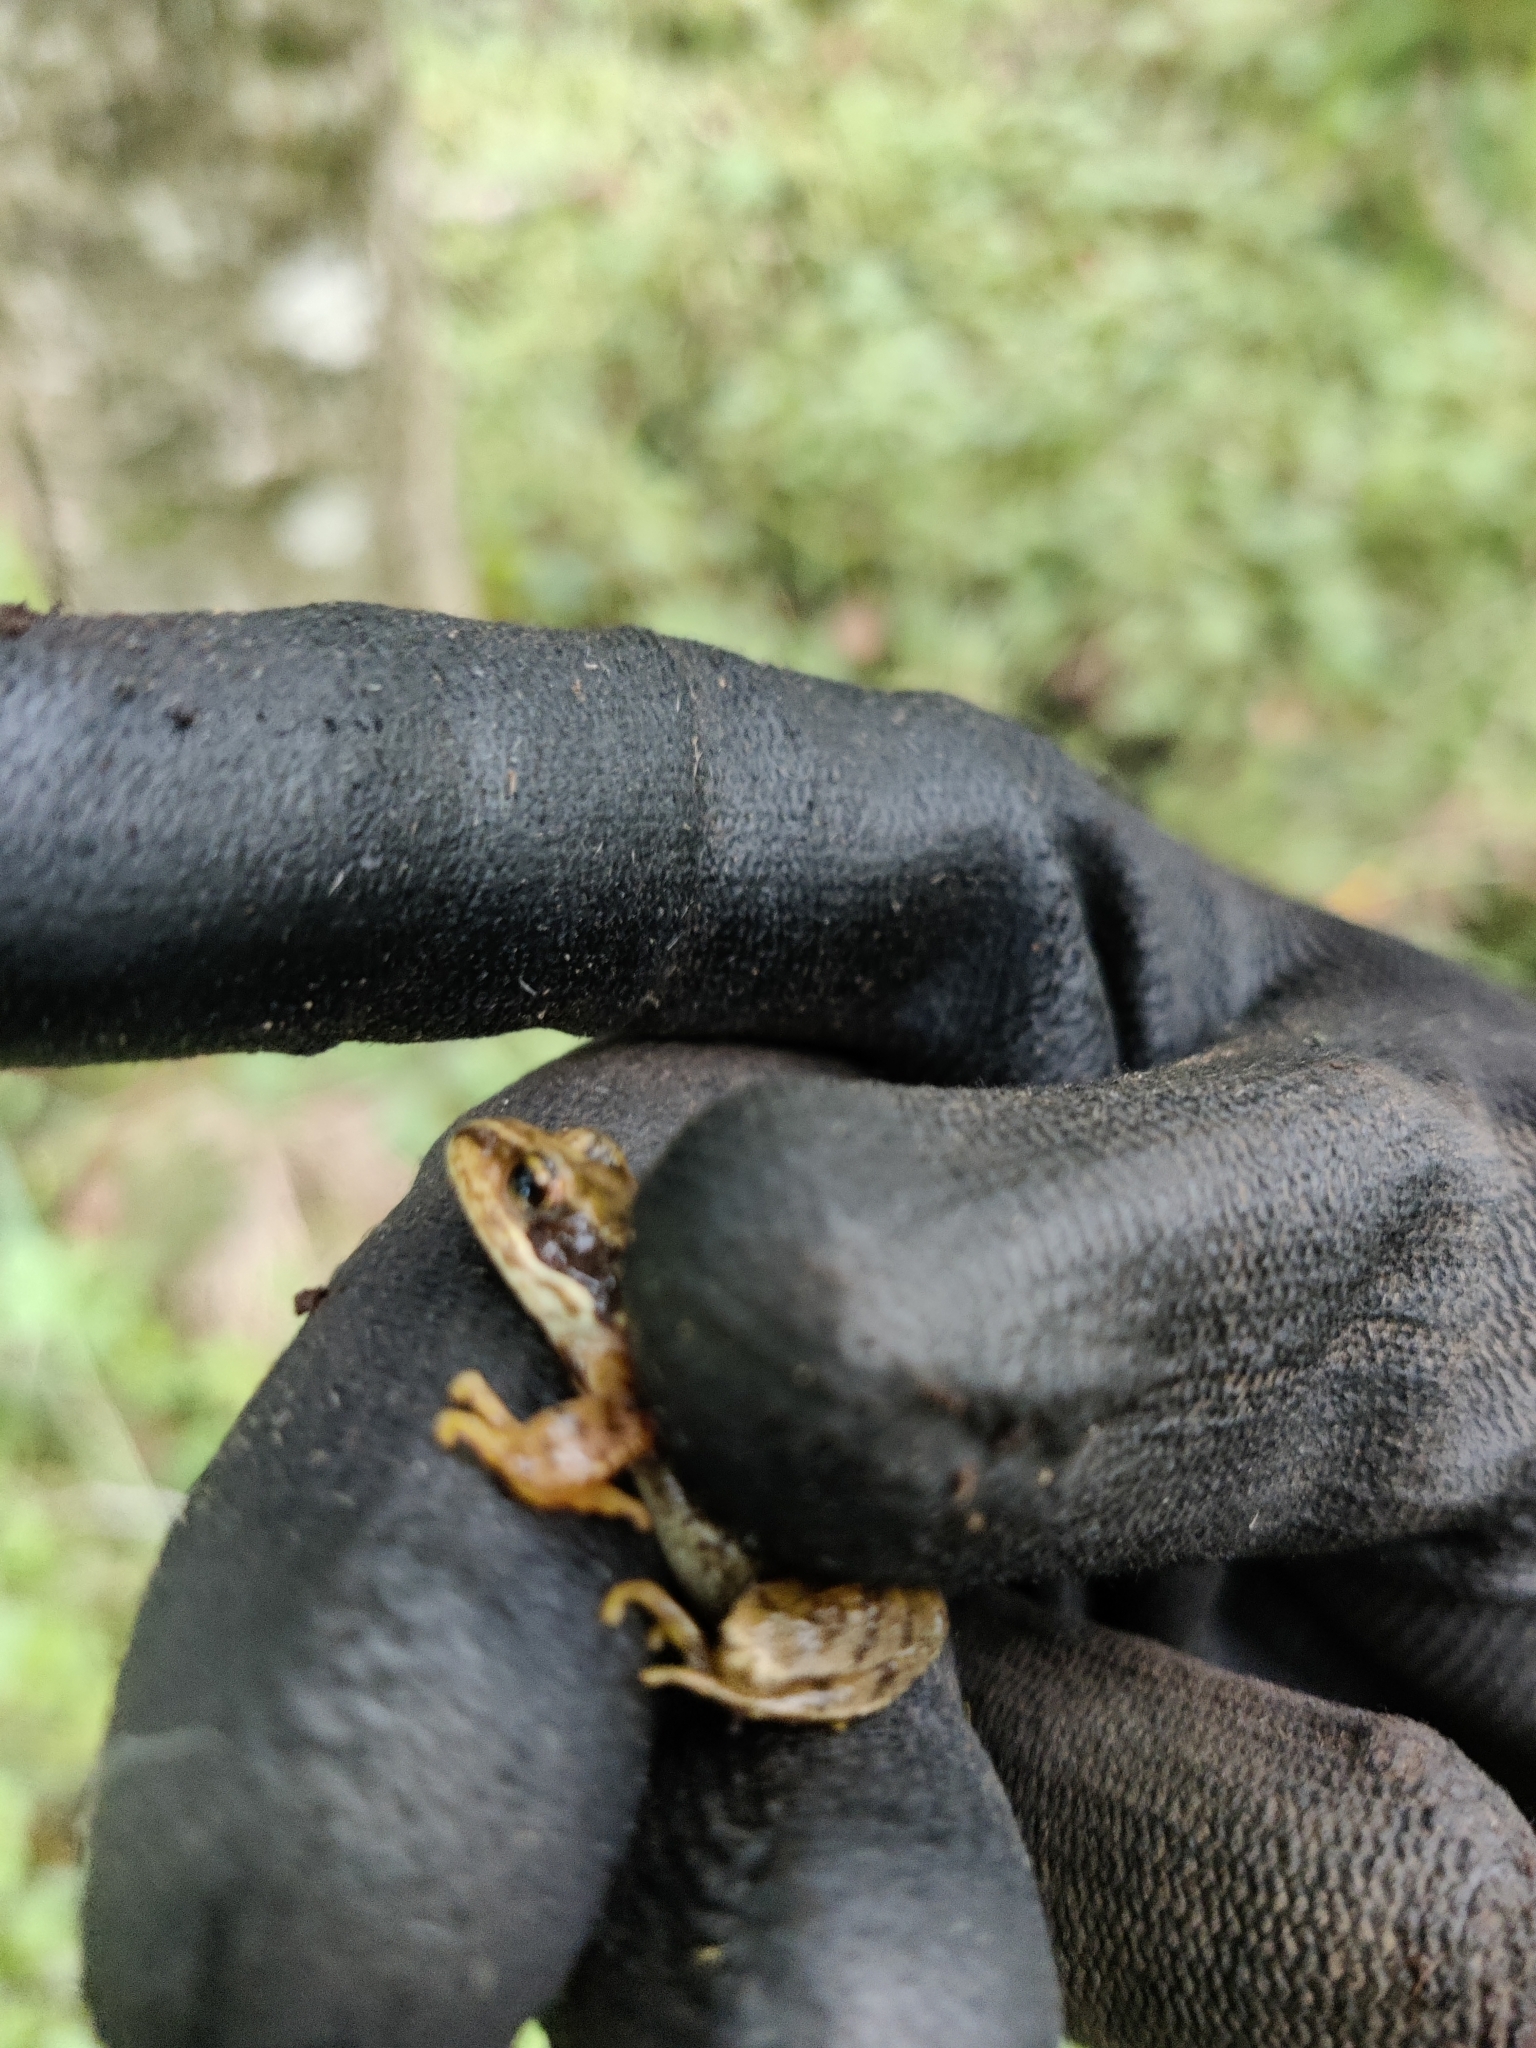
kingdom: Animalia
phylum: Chordata
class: Amphibia
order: Anura
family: Ranidae
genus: Rana
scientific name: Rana temporaria
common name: Common frog
